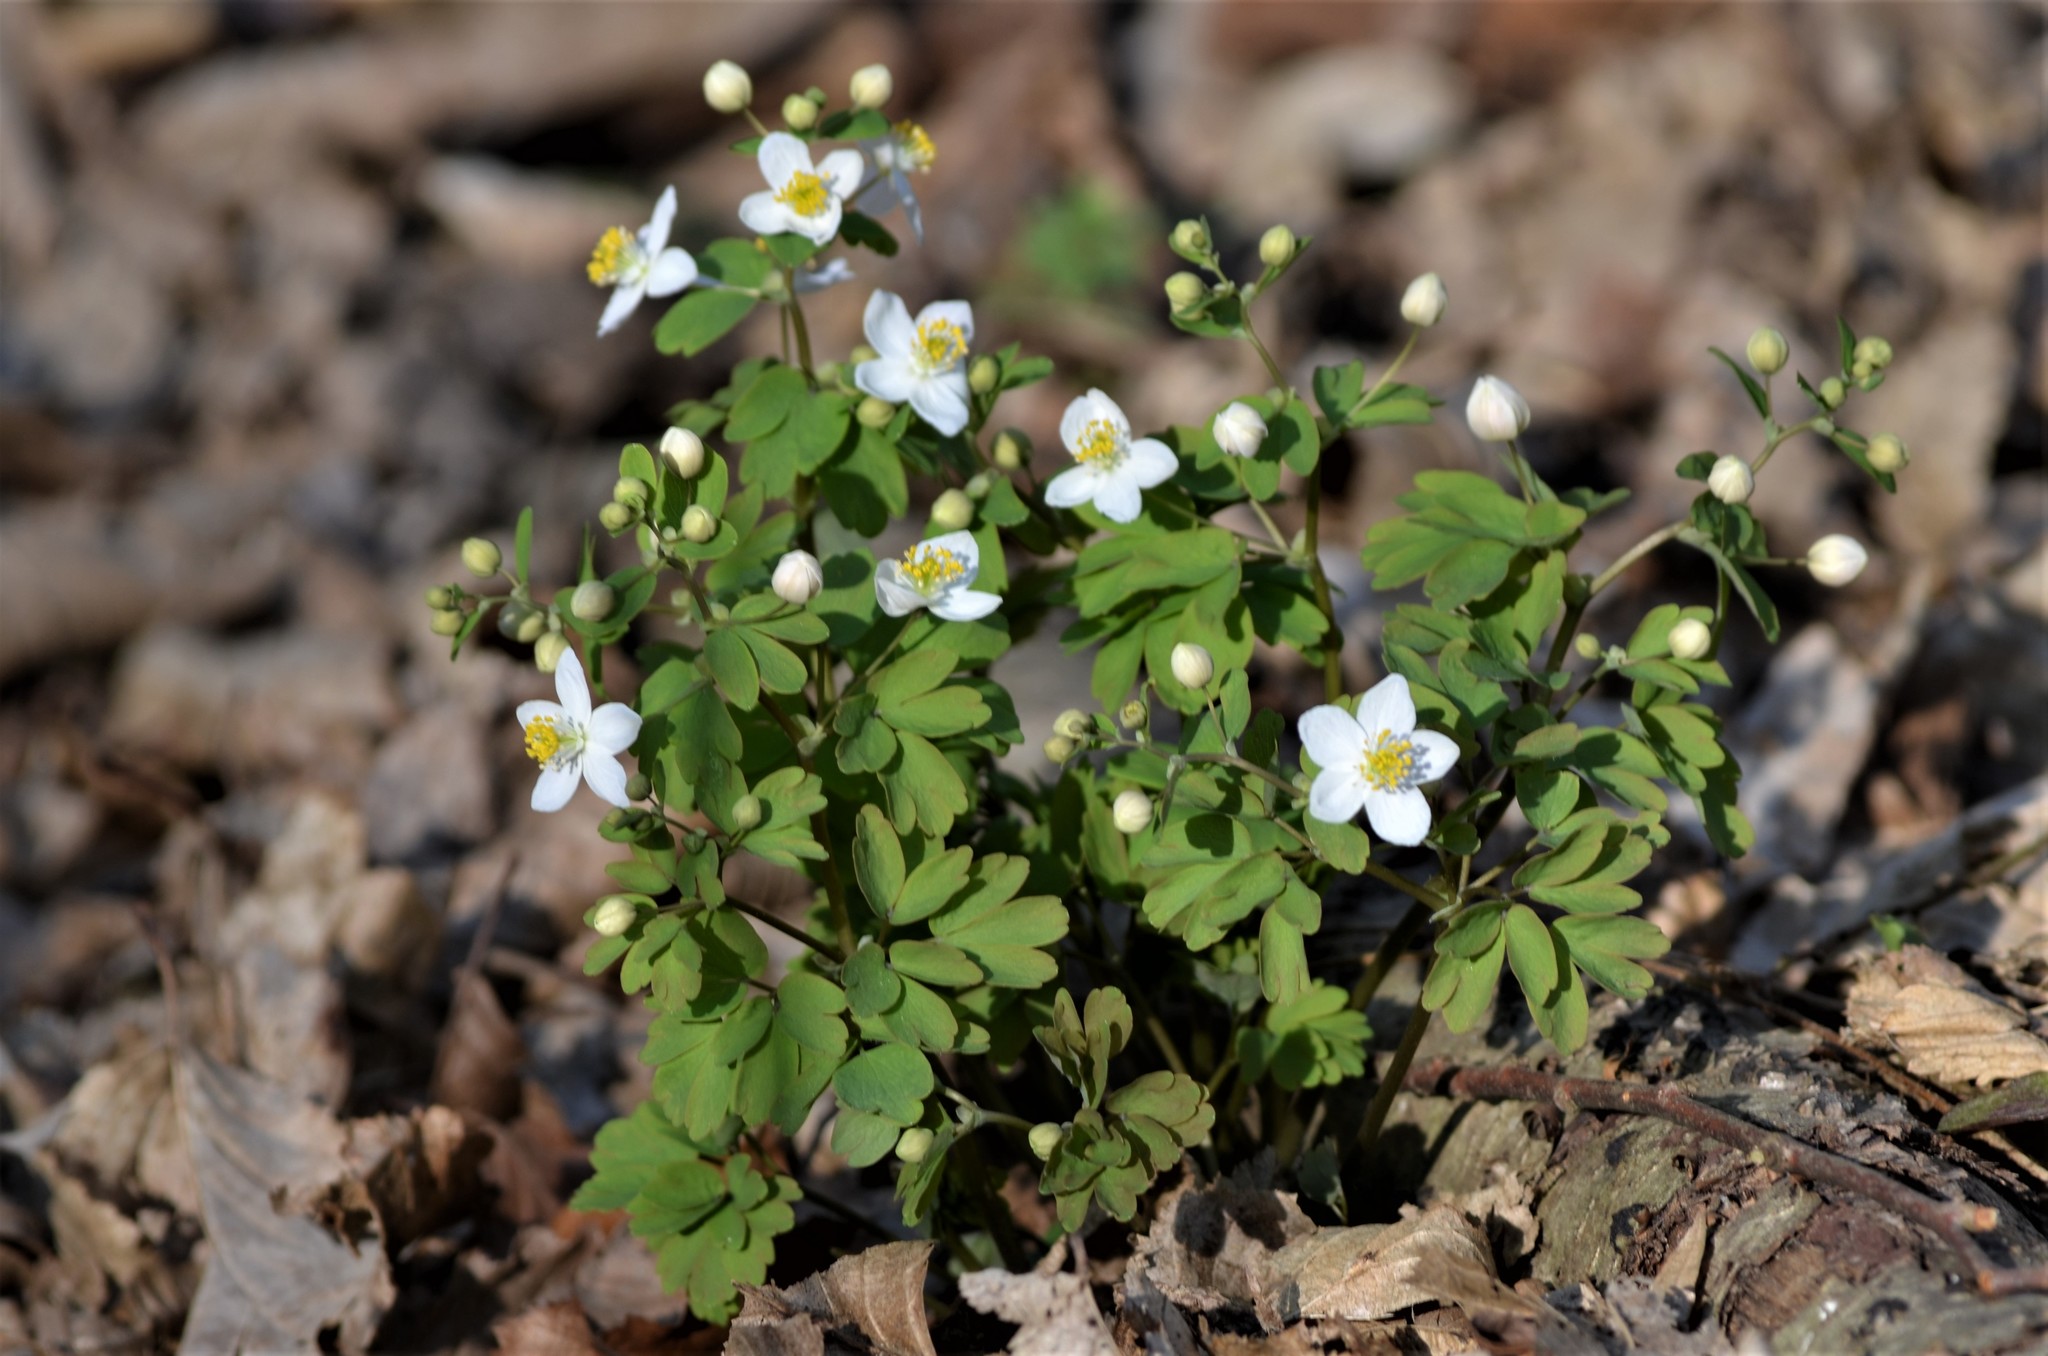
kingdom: Plantae
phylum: Tracheophyta
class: Magnoliopsida
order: Ranunculales
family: Ranunculaceae
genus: Isopyrum
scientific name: Isopyrum thalictroides
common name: Isopyrum
